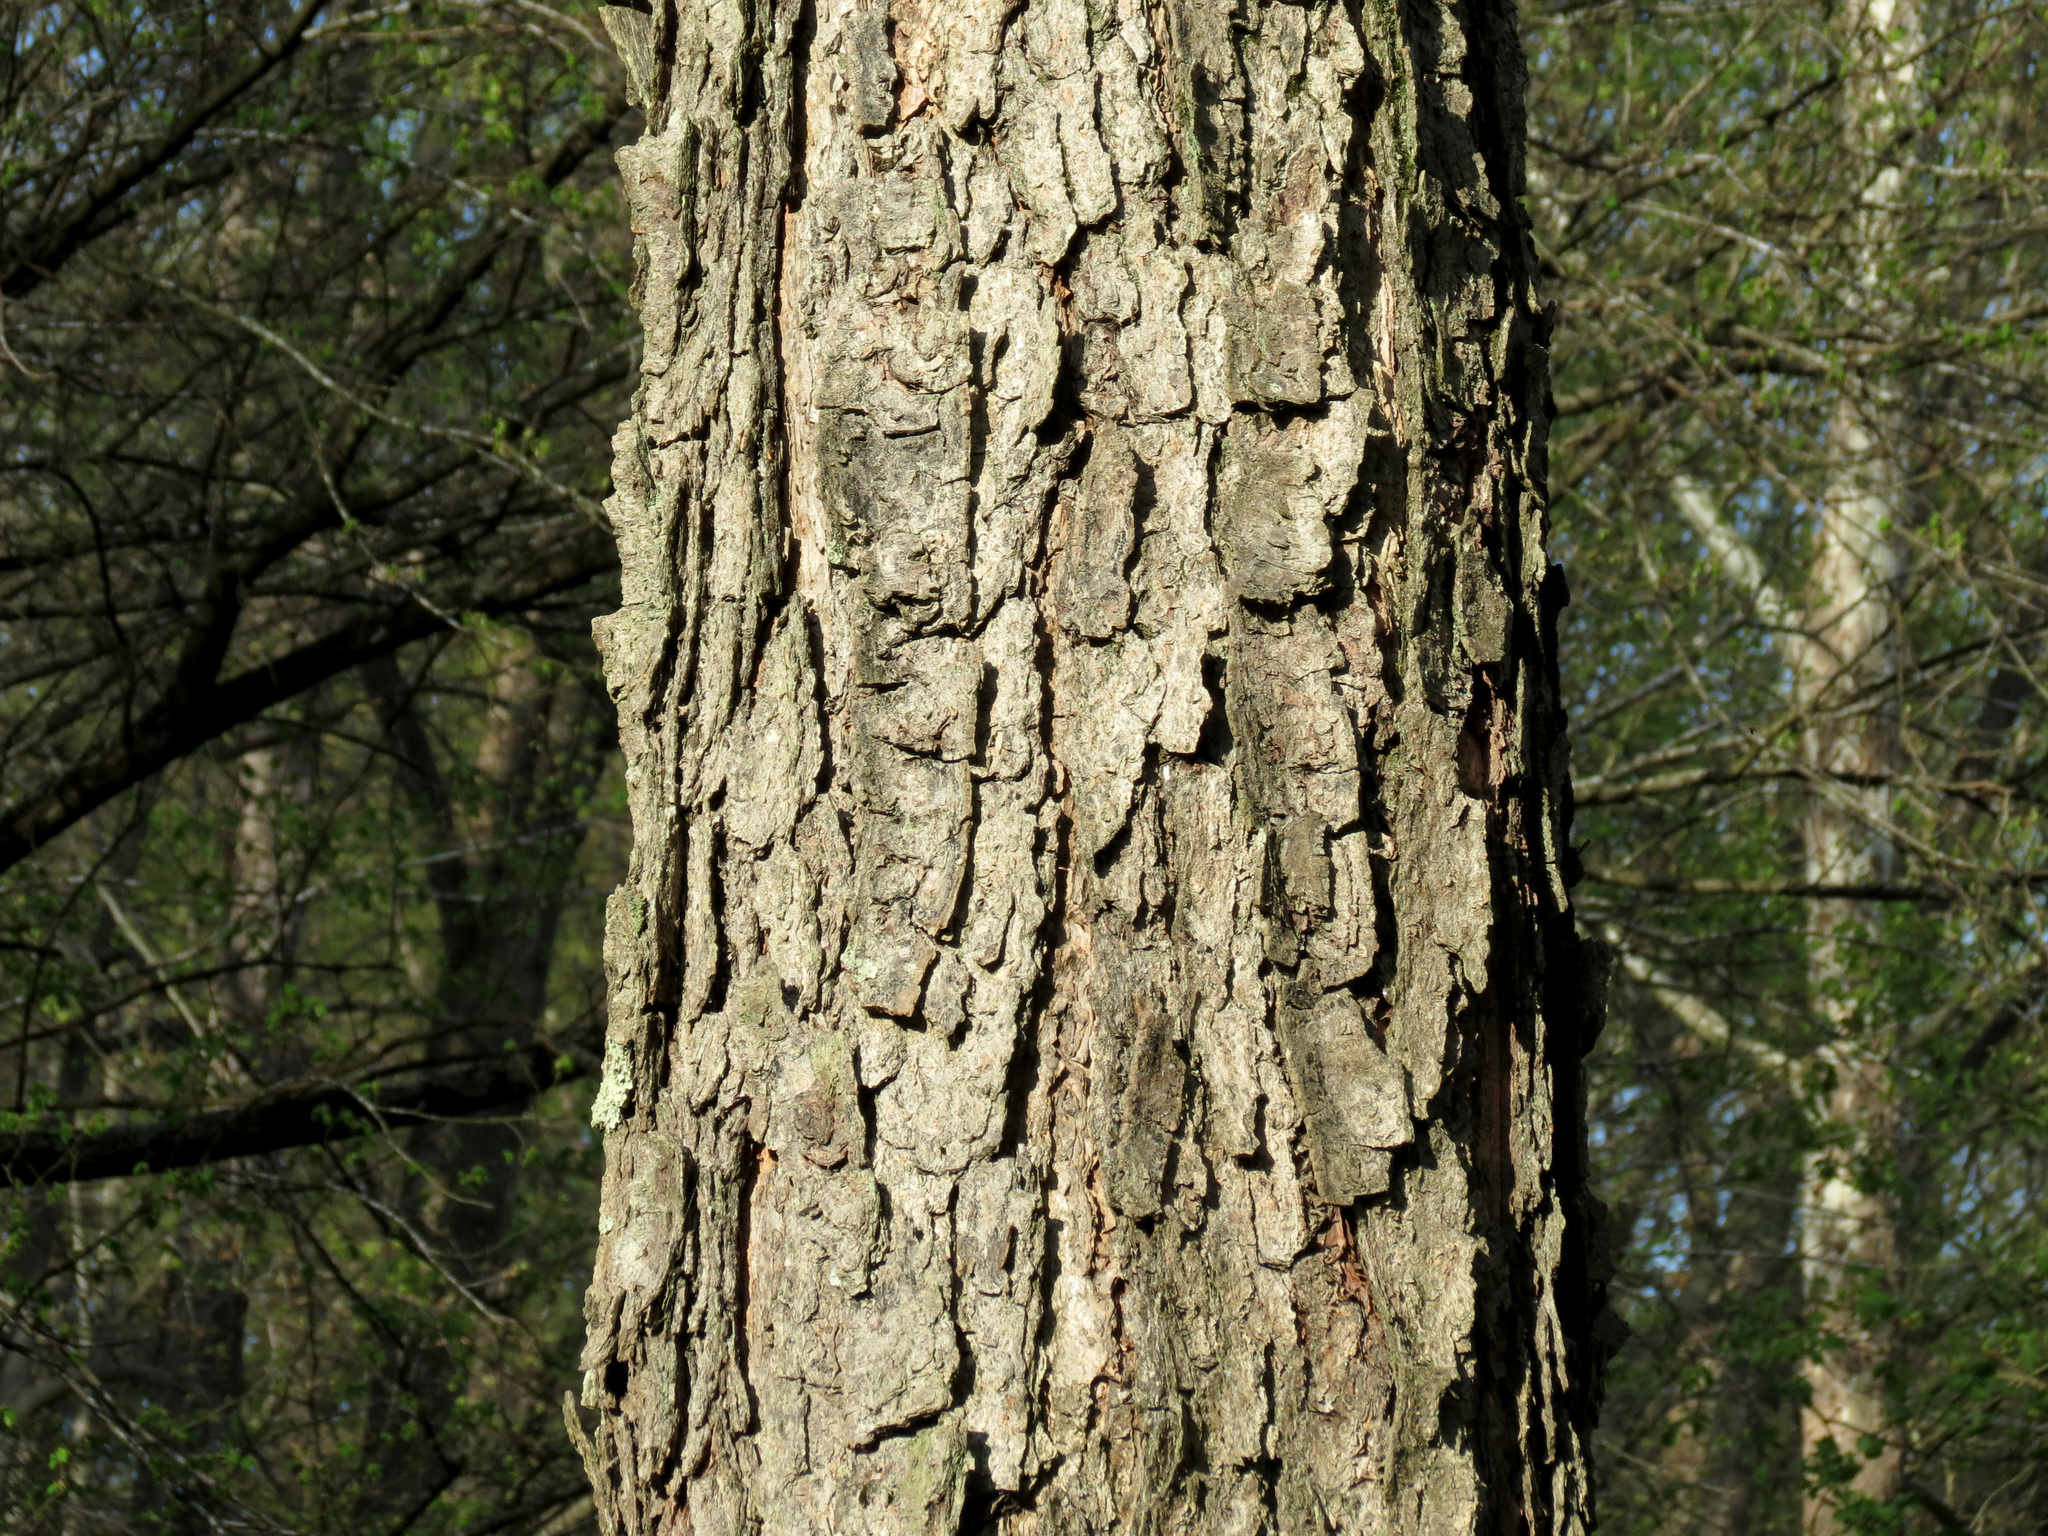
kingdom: Plantae
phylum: Tracheophyta
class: Magnoliopsida
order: Fagales
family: Betulaceae
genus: Betula
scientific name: Betula nigra
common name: Black birch
